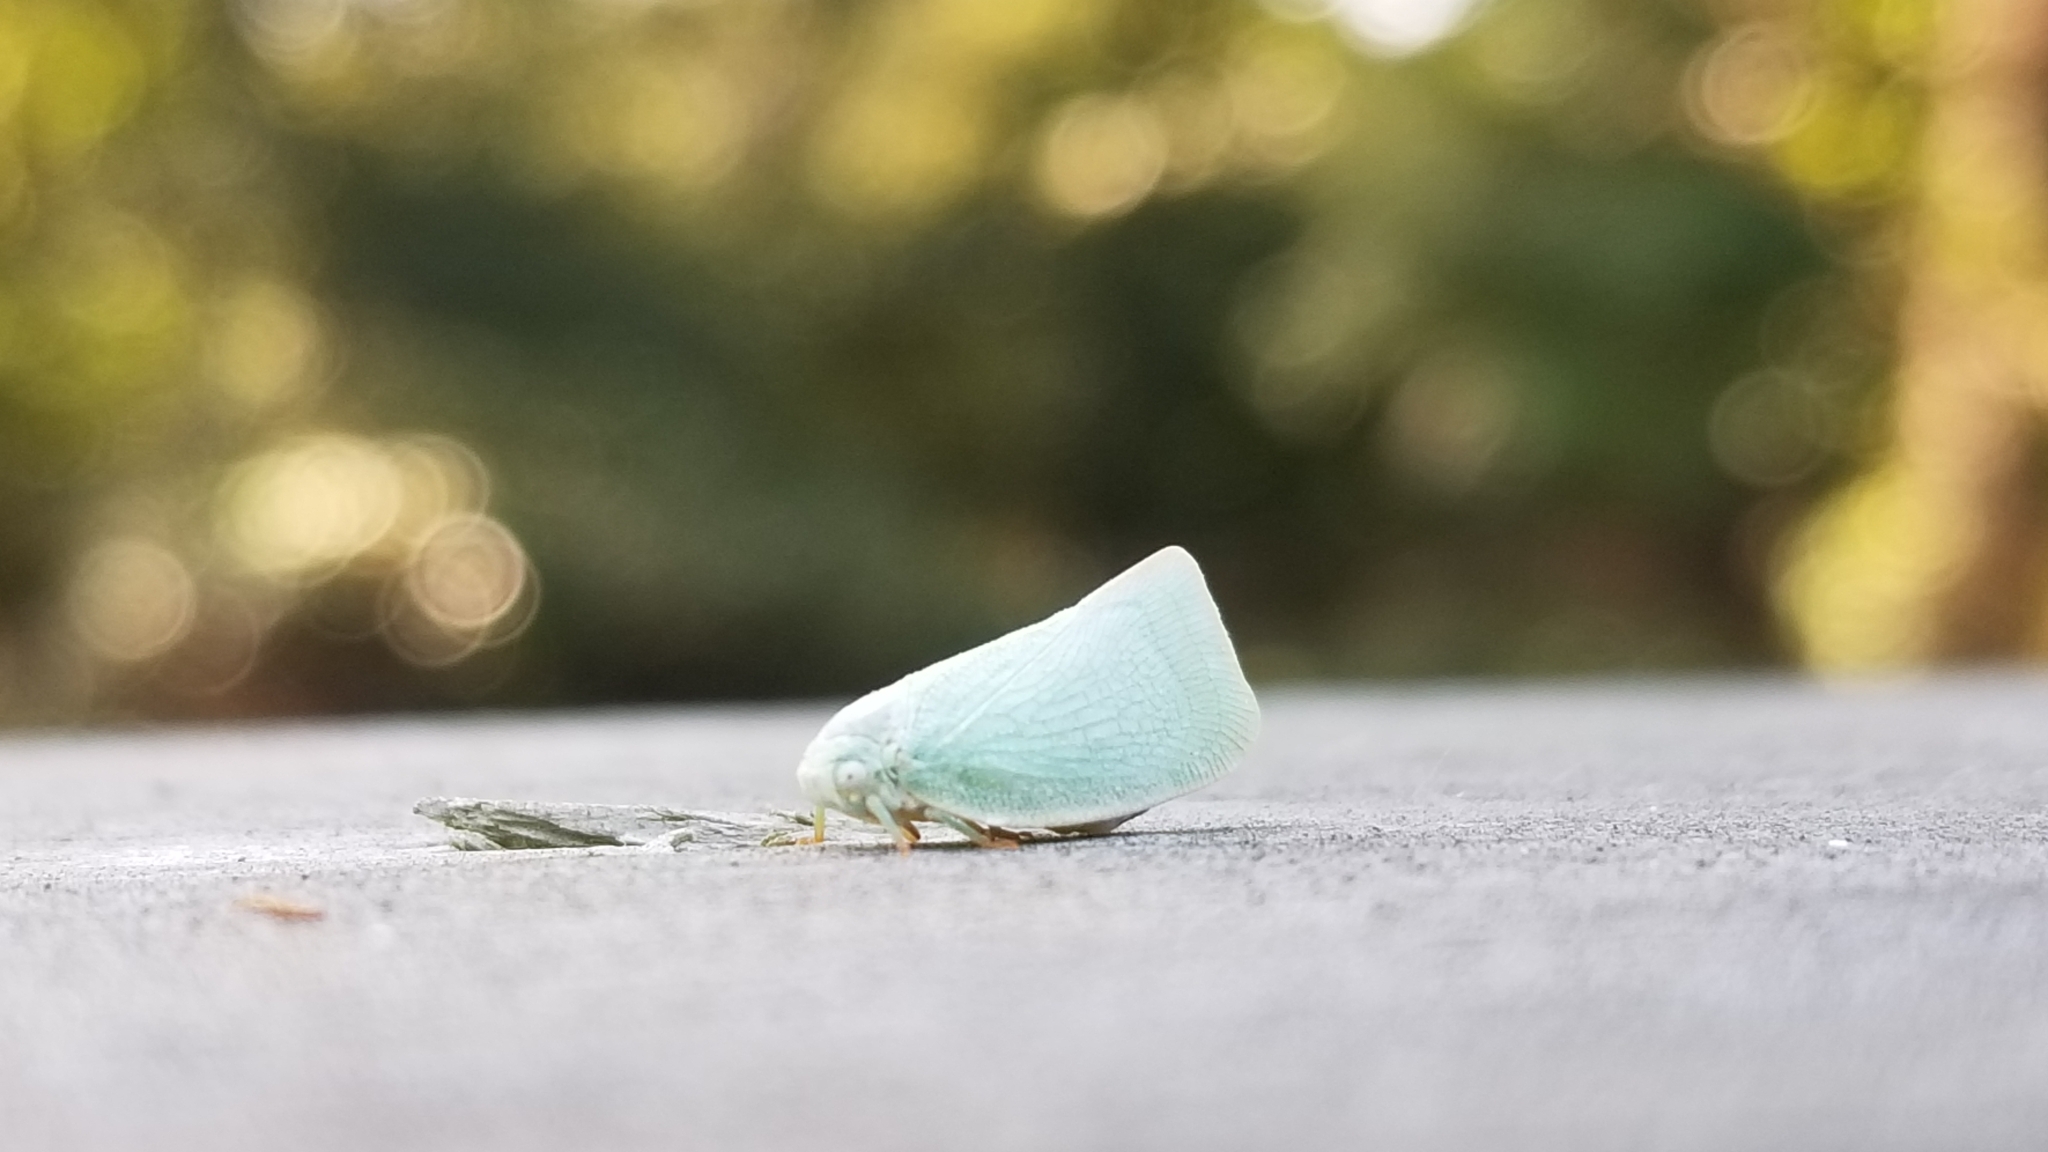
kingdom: Animalia
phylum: Arthropoda
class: Insecta
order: Hemiptera
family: Flatidae
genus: Flatormenis
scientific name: Flatormenis proxima
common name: Northern flatid planthopper
